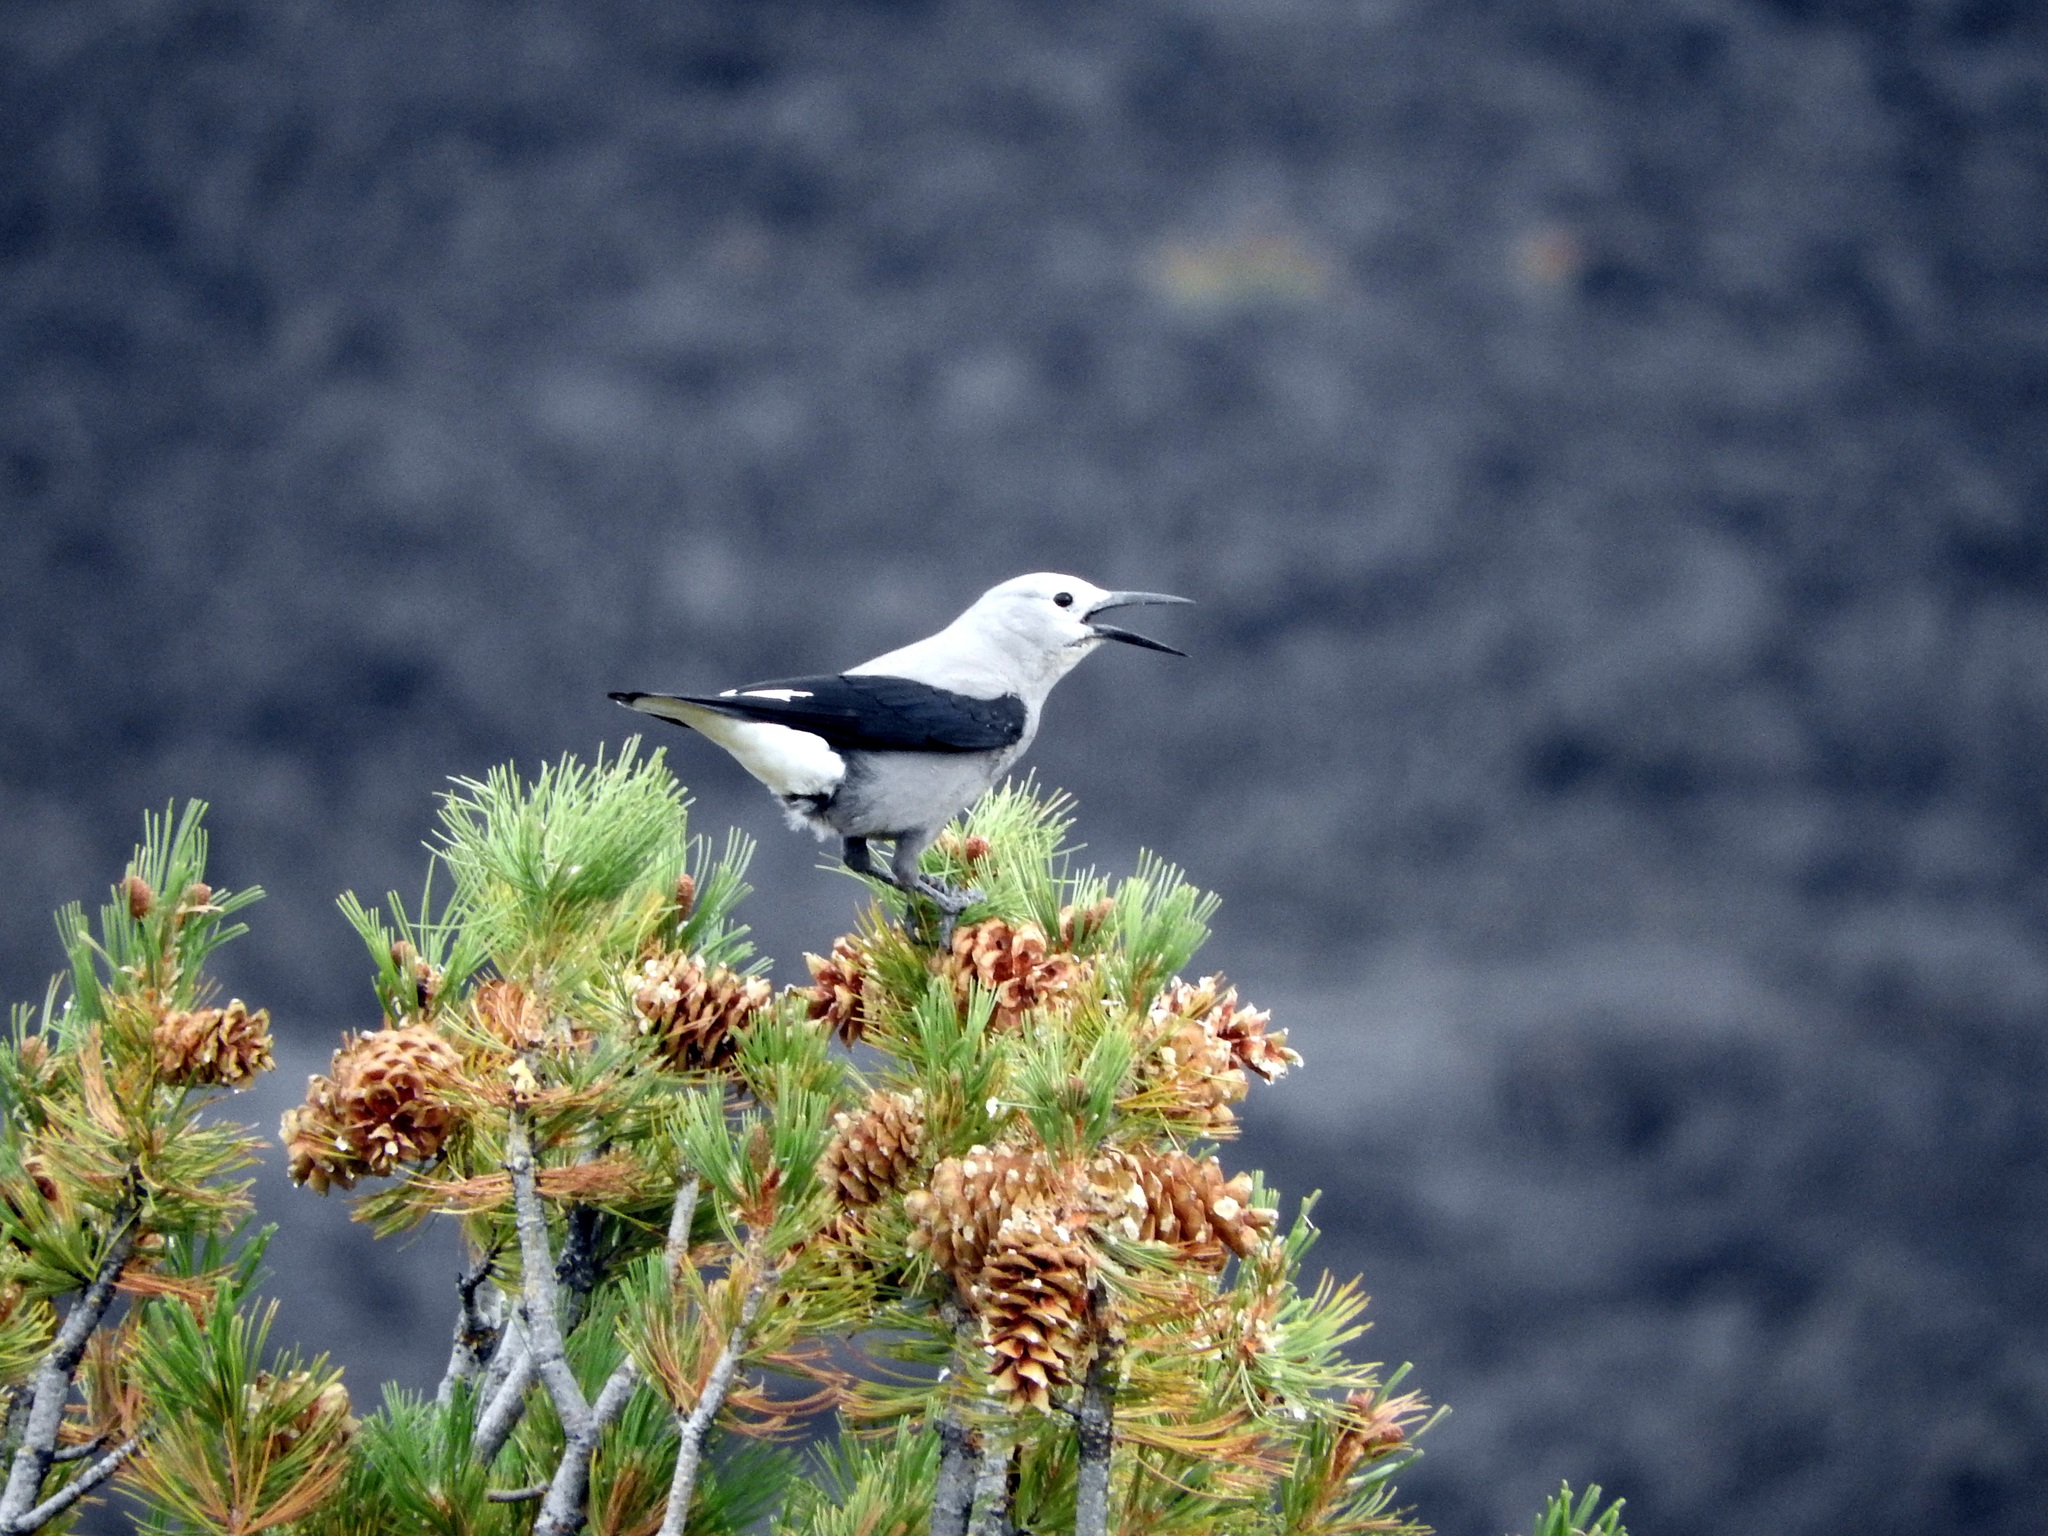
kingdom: Animalia
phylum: Chordata
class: Aves
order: Passeriformes
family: Corvidae
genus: Nucifraga
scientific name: Nucifraga columbiana
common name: Clark's nutcracker
